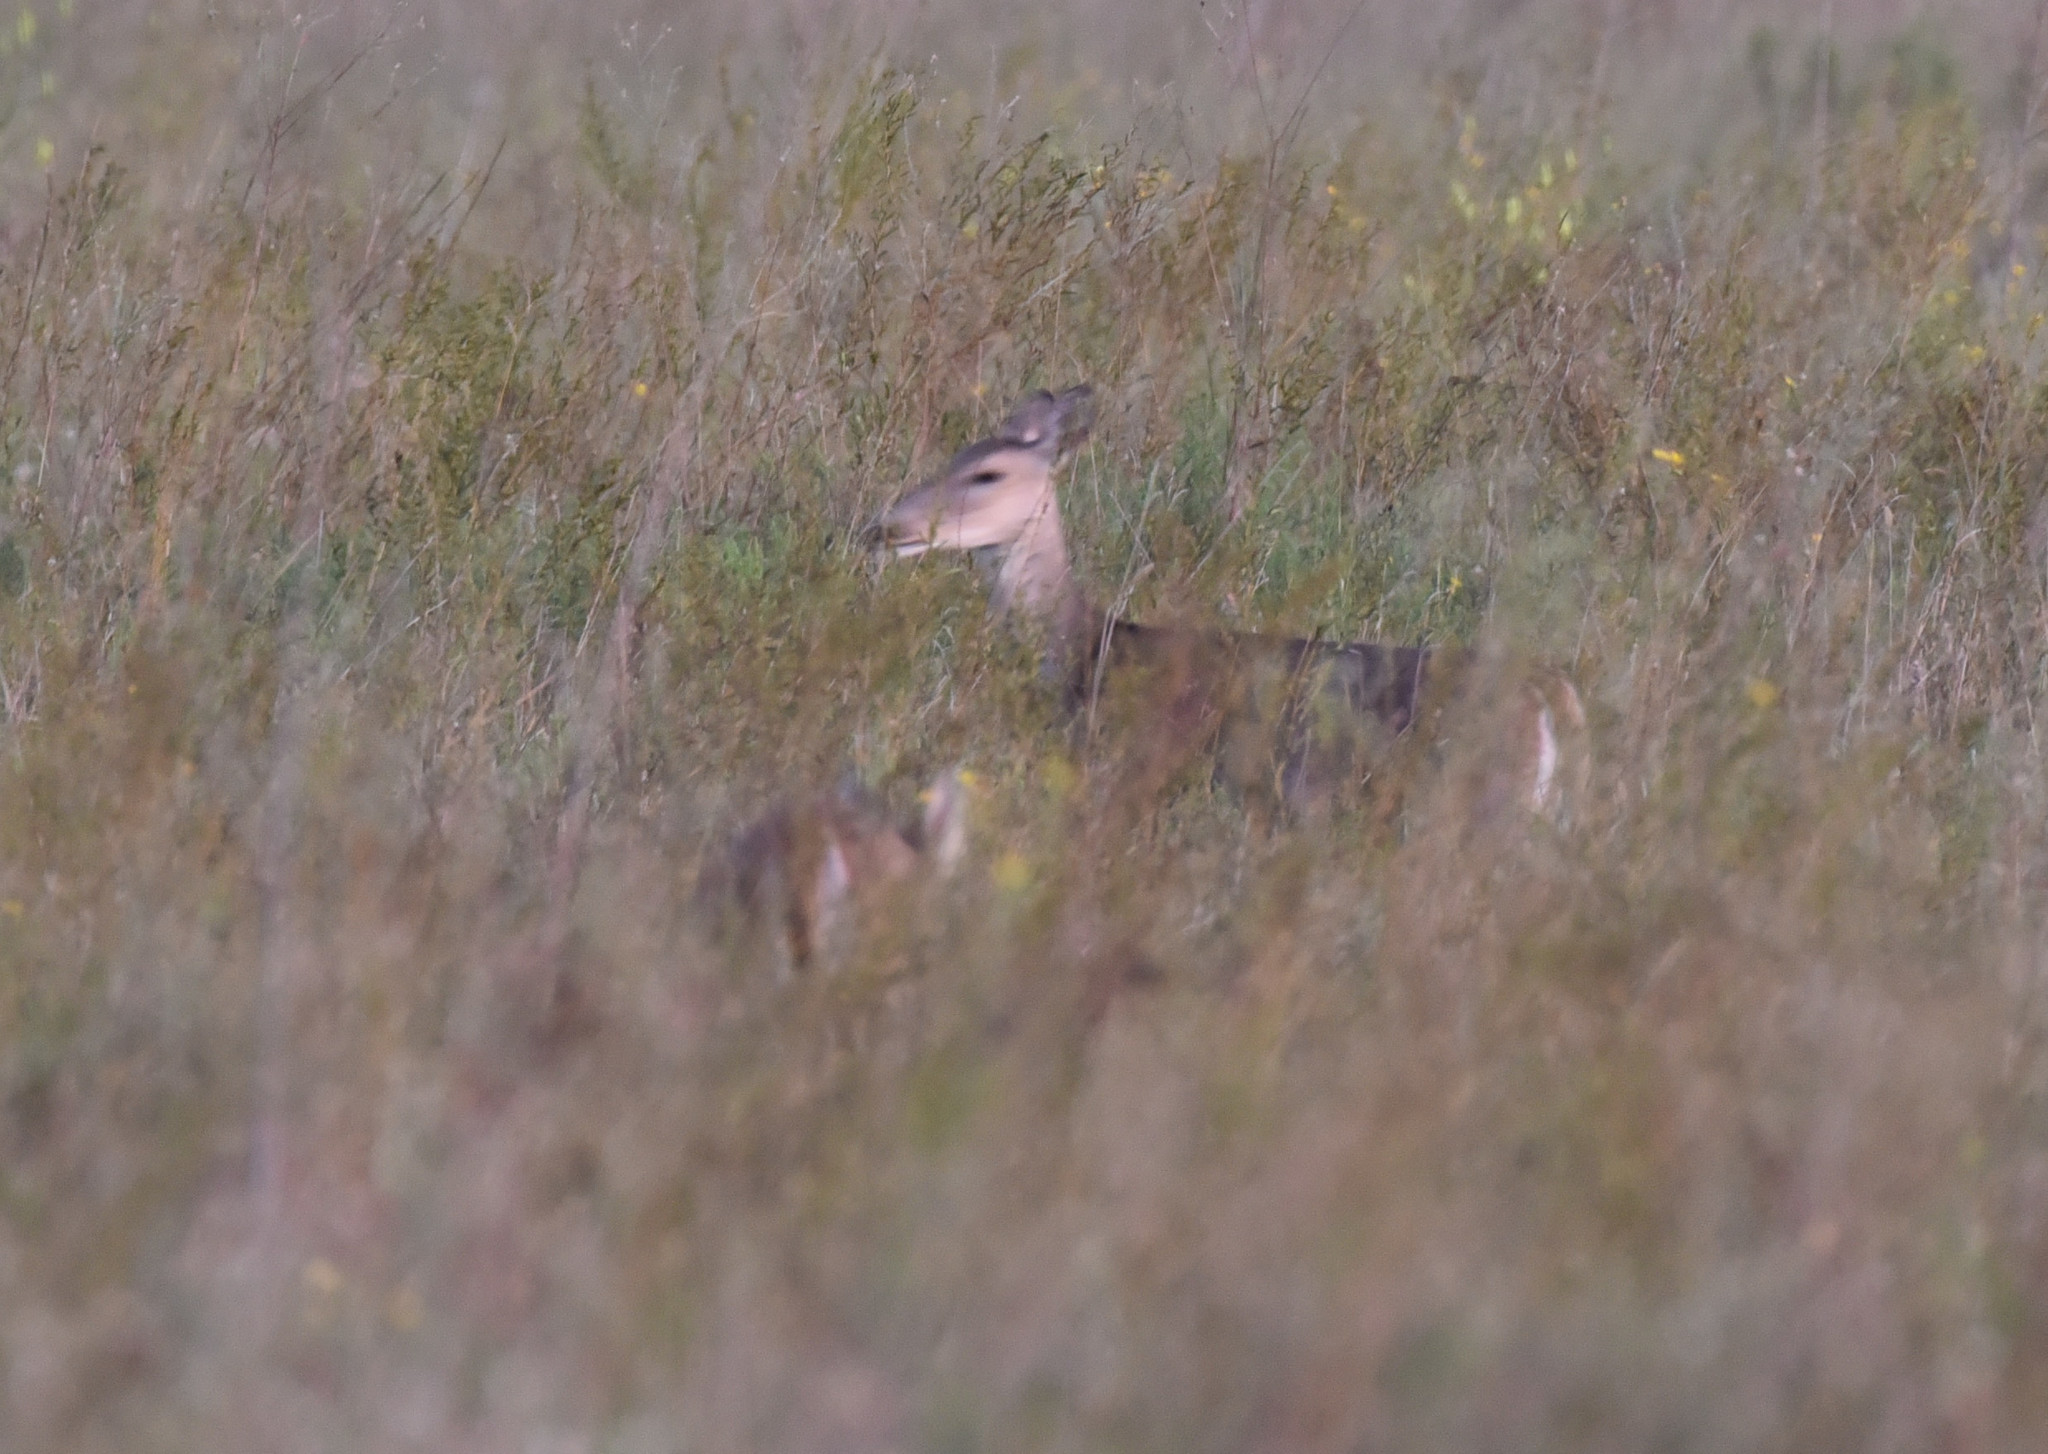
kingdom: Animalia
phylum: Chordata
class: Mammalia
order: Artiodactyla
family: Cervidae
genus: Odocoileus
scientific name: Odocoileus virginianus
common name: White-tailed deer
